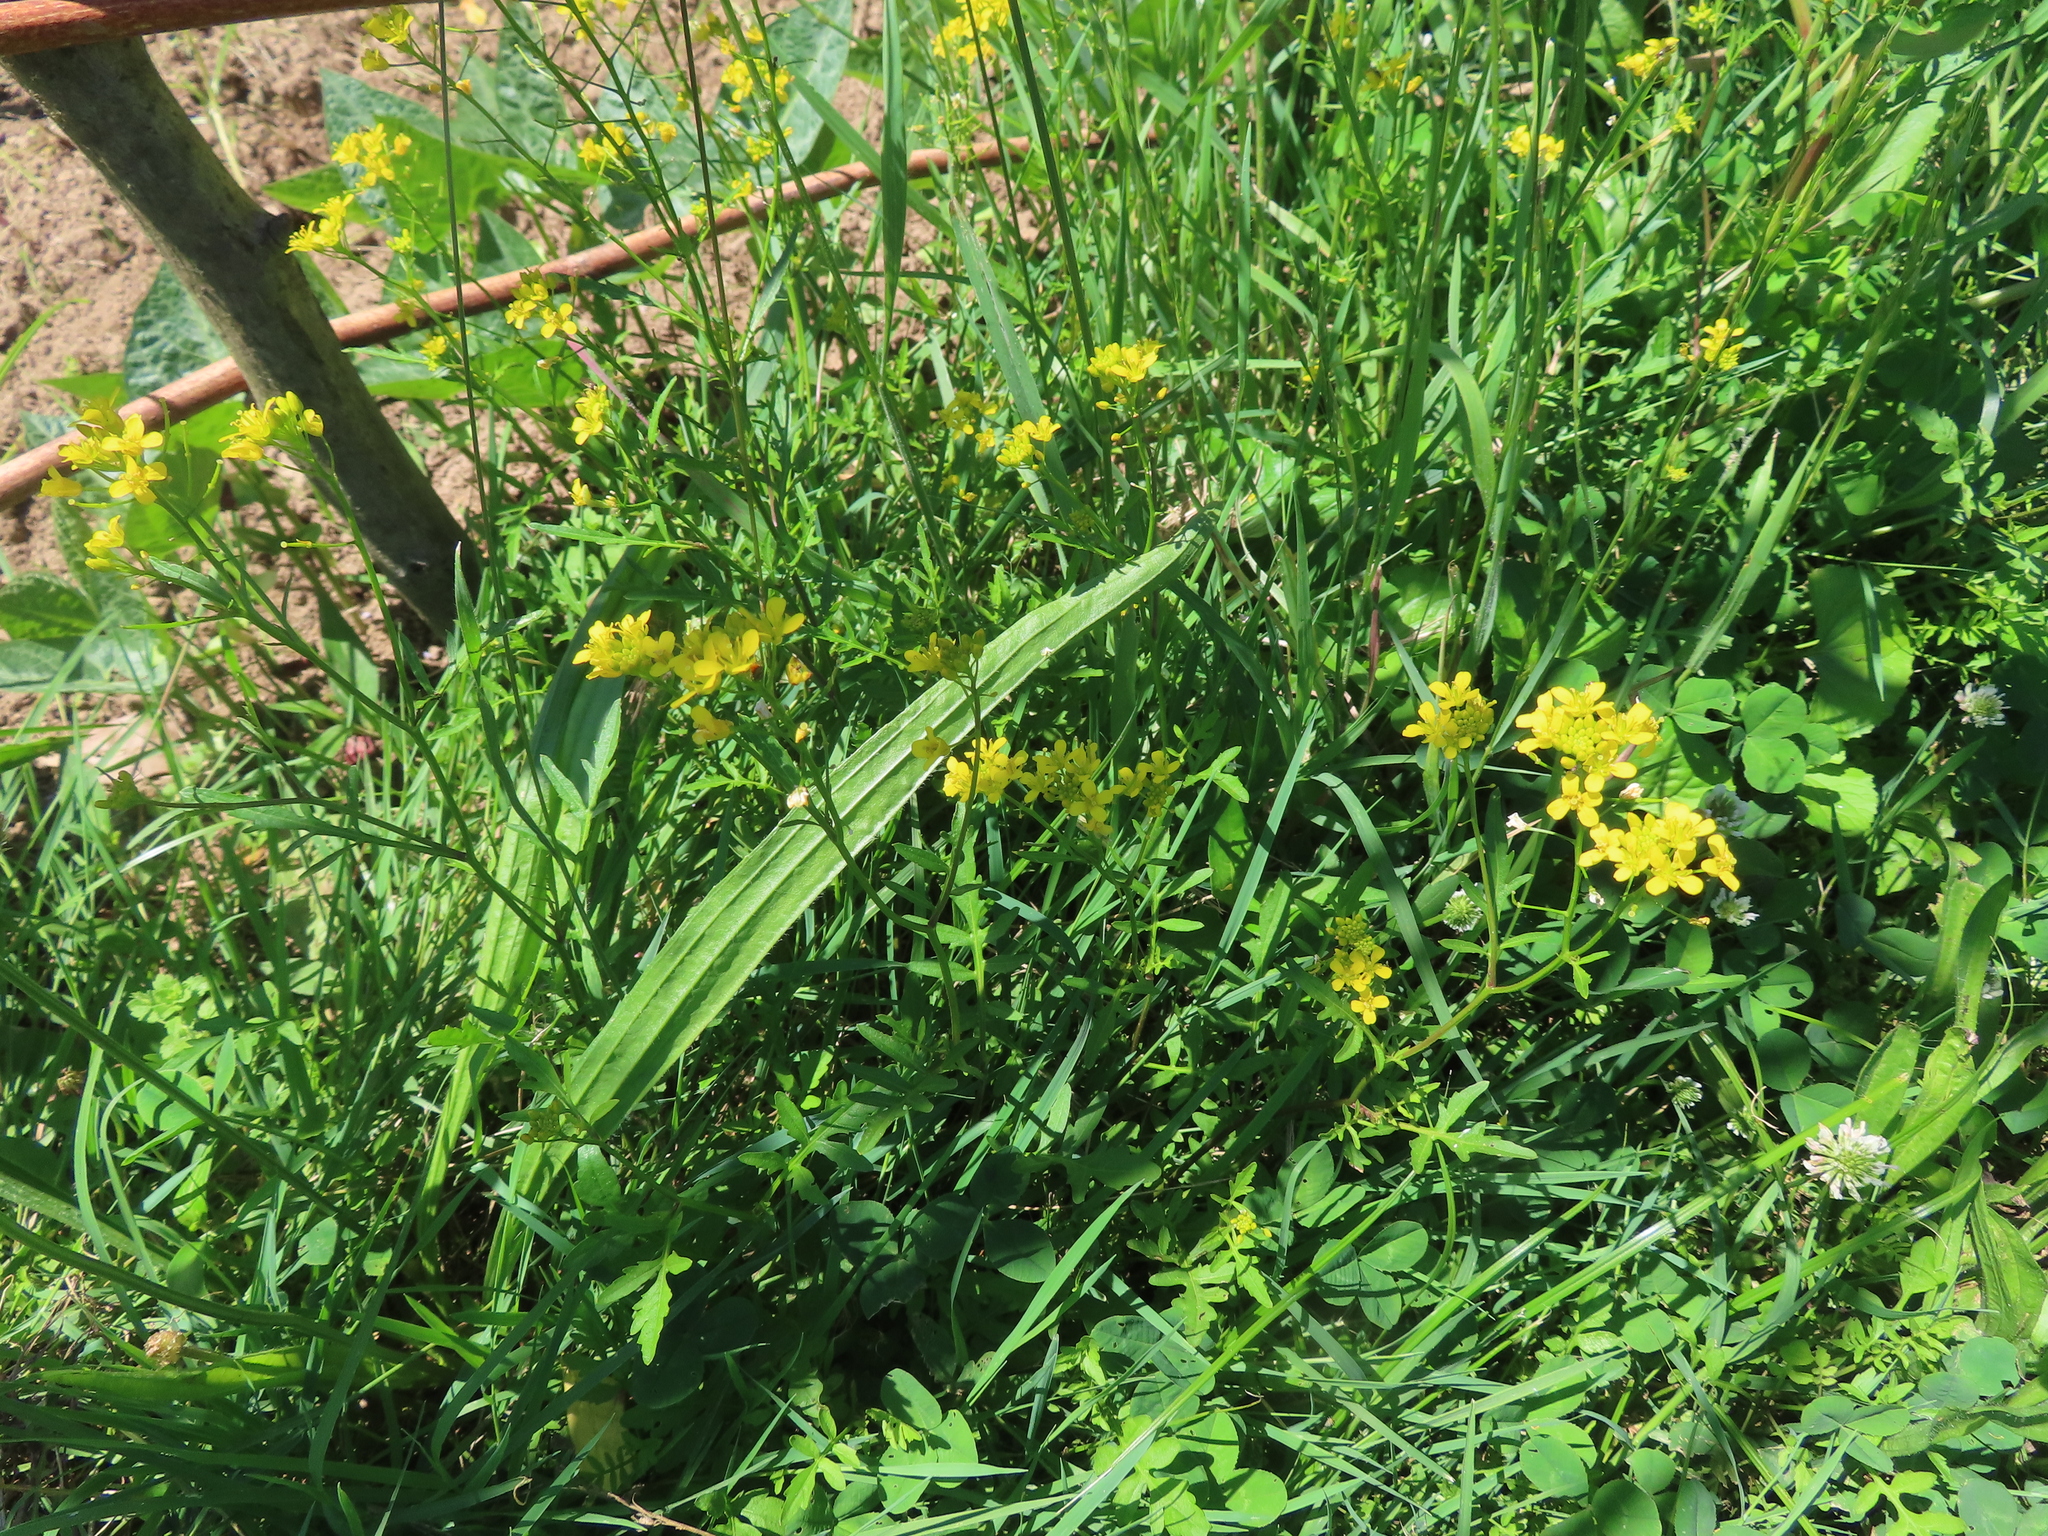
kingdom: Plantae
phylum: Tracheophyta
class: Magnoliopsida
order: Brassicales
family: Brassicaceae
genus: Rorippa
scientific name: Rorippa sylvestris
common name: Creeping yellowcress
